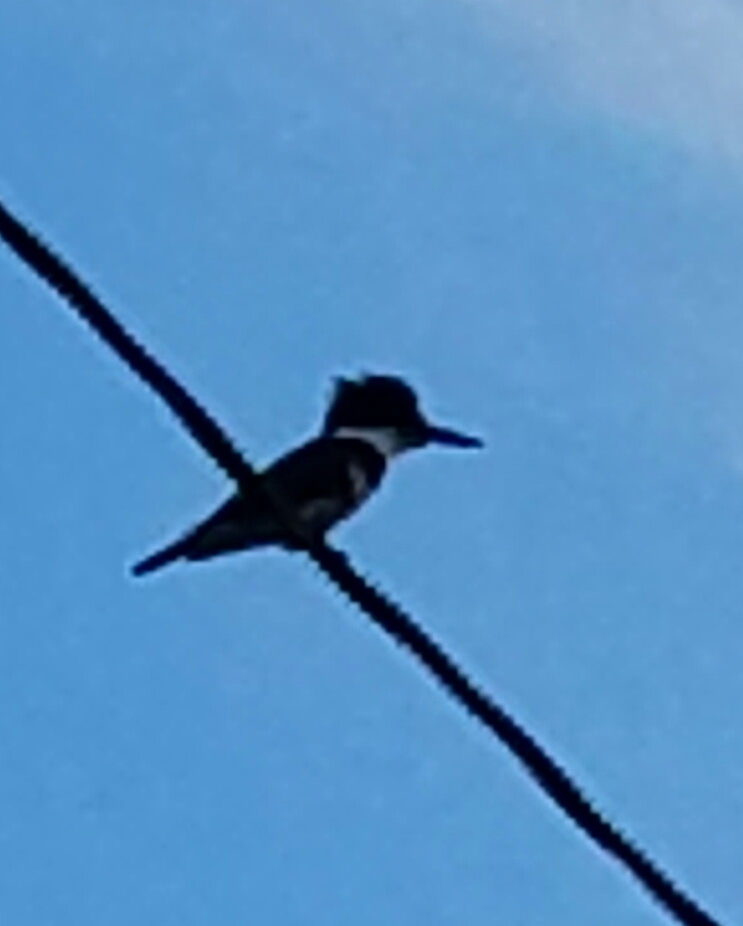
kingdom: Animalia
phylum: Chordata
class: Aves
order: Coraciiformes
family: Alcedinidae
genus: Megaceryle
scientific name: Megaceryle alcyon
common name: Belted kingfisher
